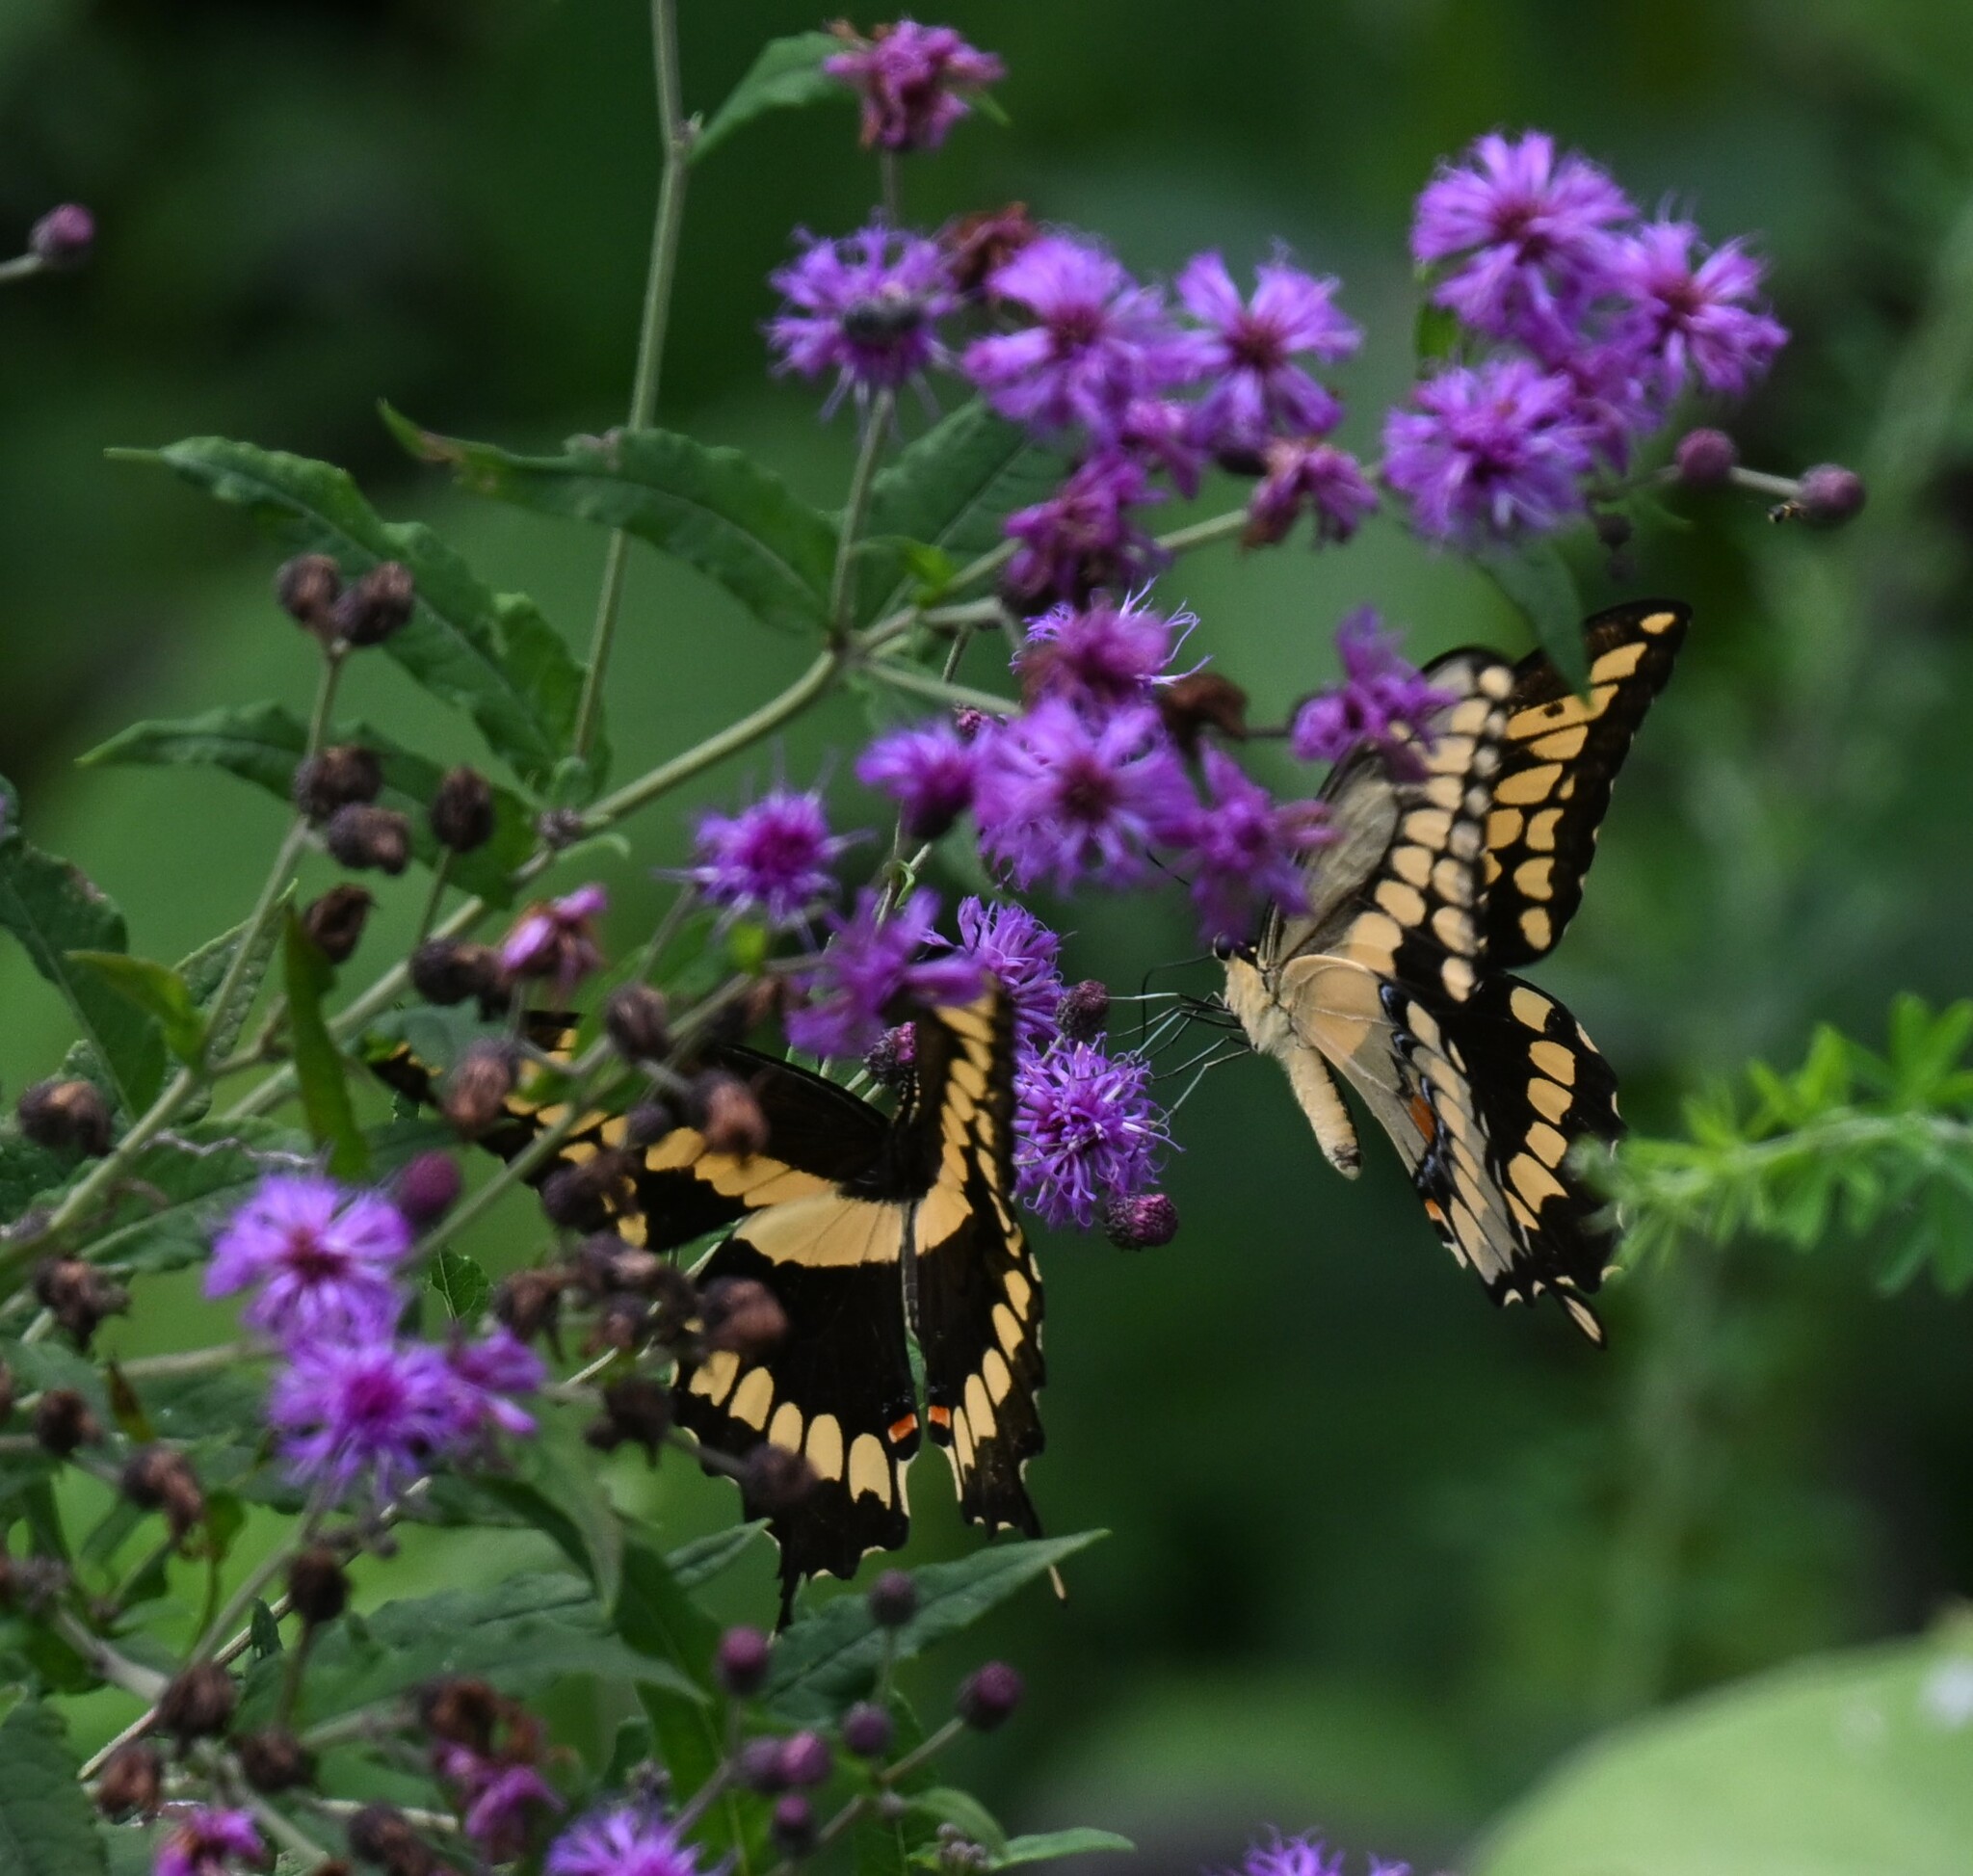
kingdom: Animalia
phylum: Arthropoda
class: Insecta
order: Lepidoptera
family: Papilionidae
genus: Papilio
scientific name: Papilio cresphontes
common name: Giant swallowtail
